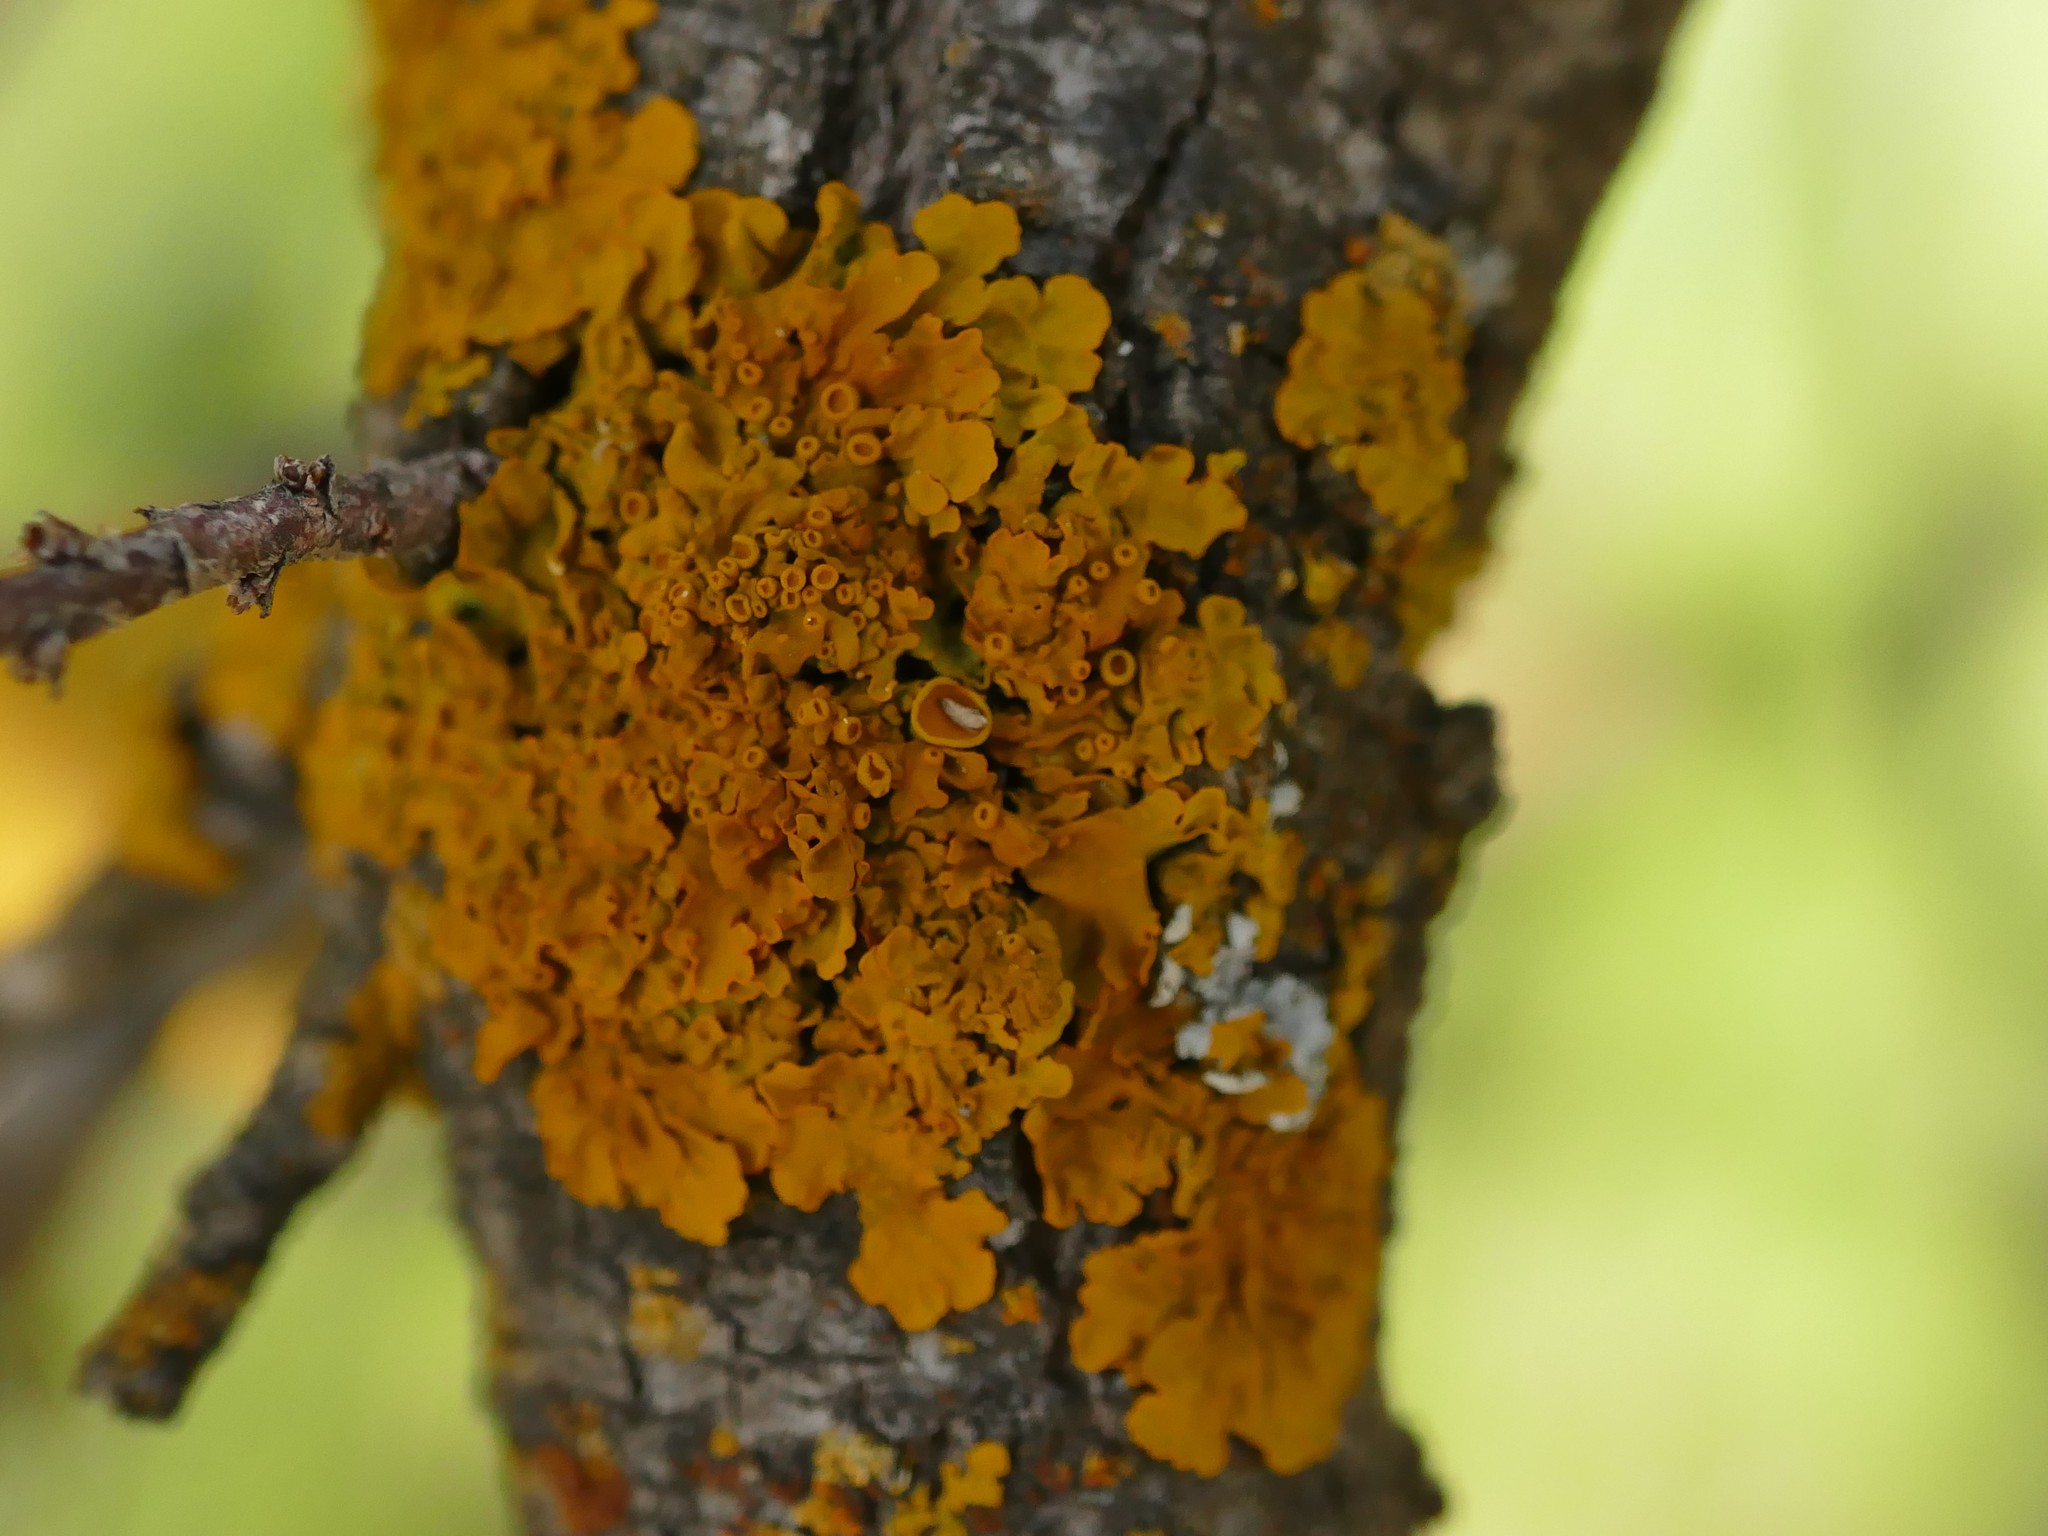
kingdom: Fungi
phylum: Ascomycota
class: Lecanoromycetes
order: Teloschistales
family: Teloschistaceae
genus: Xanthoria
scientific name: Xanthoria parietina
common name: Common orange lichen
